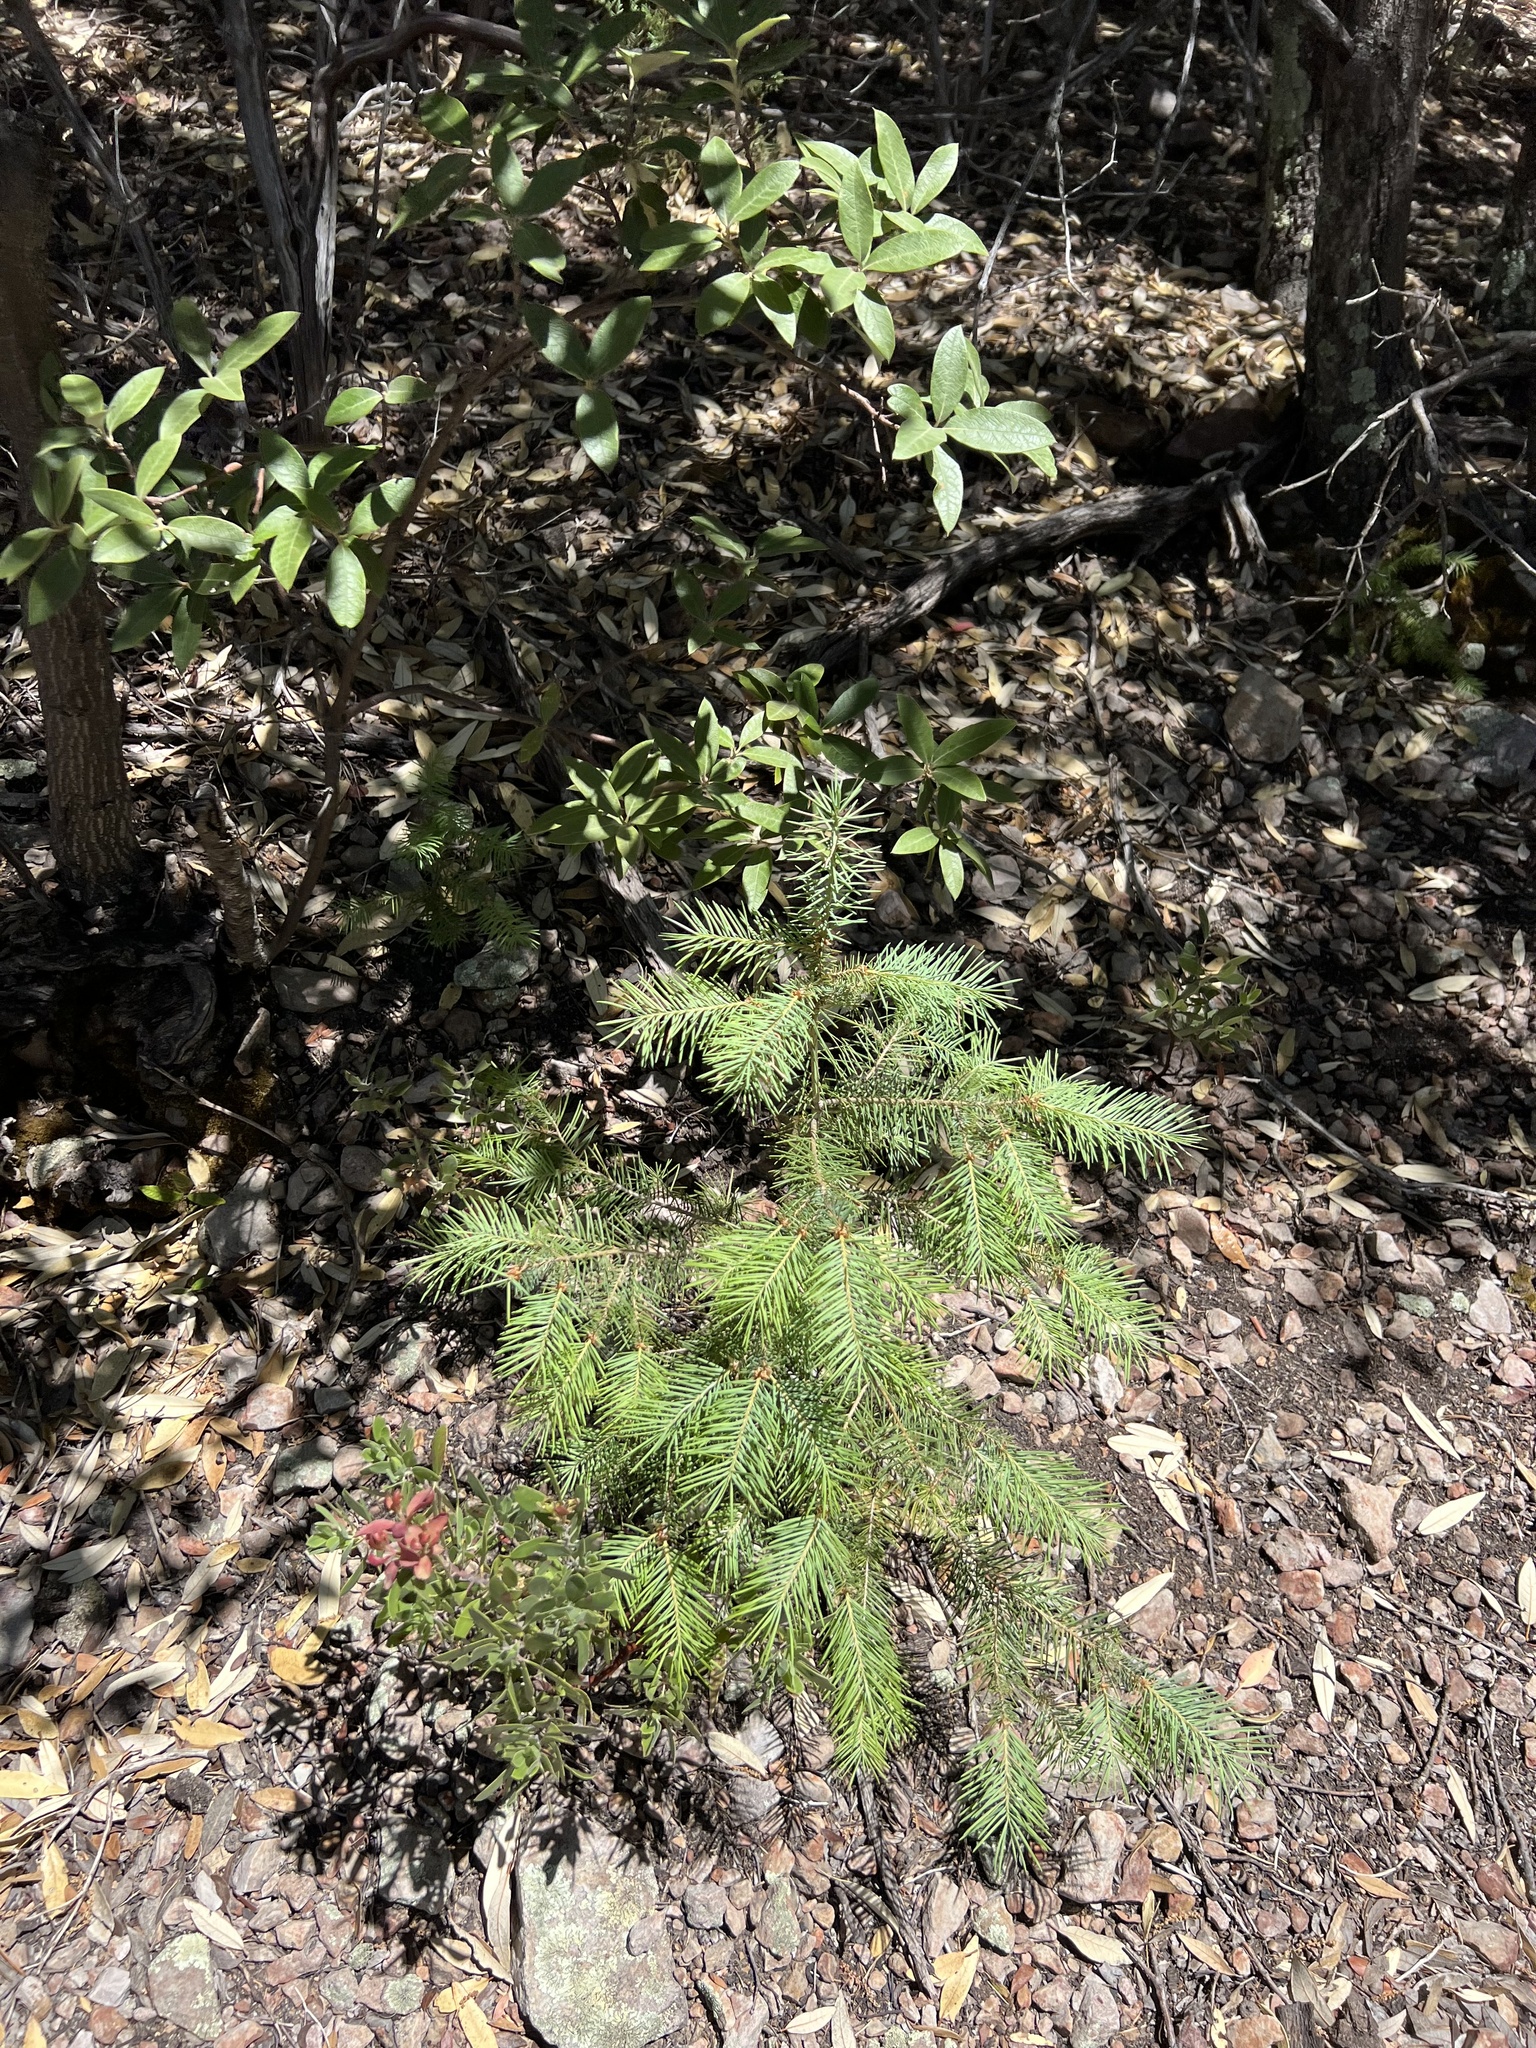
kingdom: Plantae
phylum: Tracheophyta
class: Pinopsida
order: Pinales
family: Pinaceae
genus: Pseudotsuga
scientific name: Pseudotsuga menziesii
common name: Douglas fir
